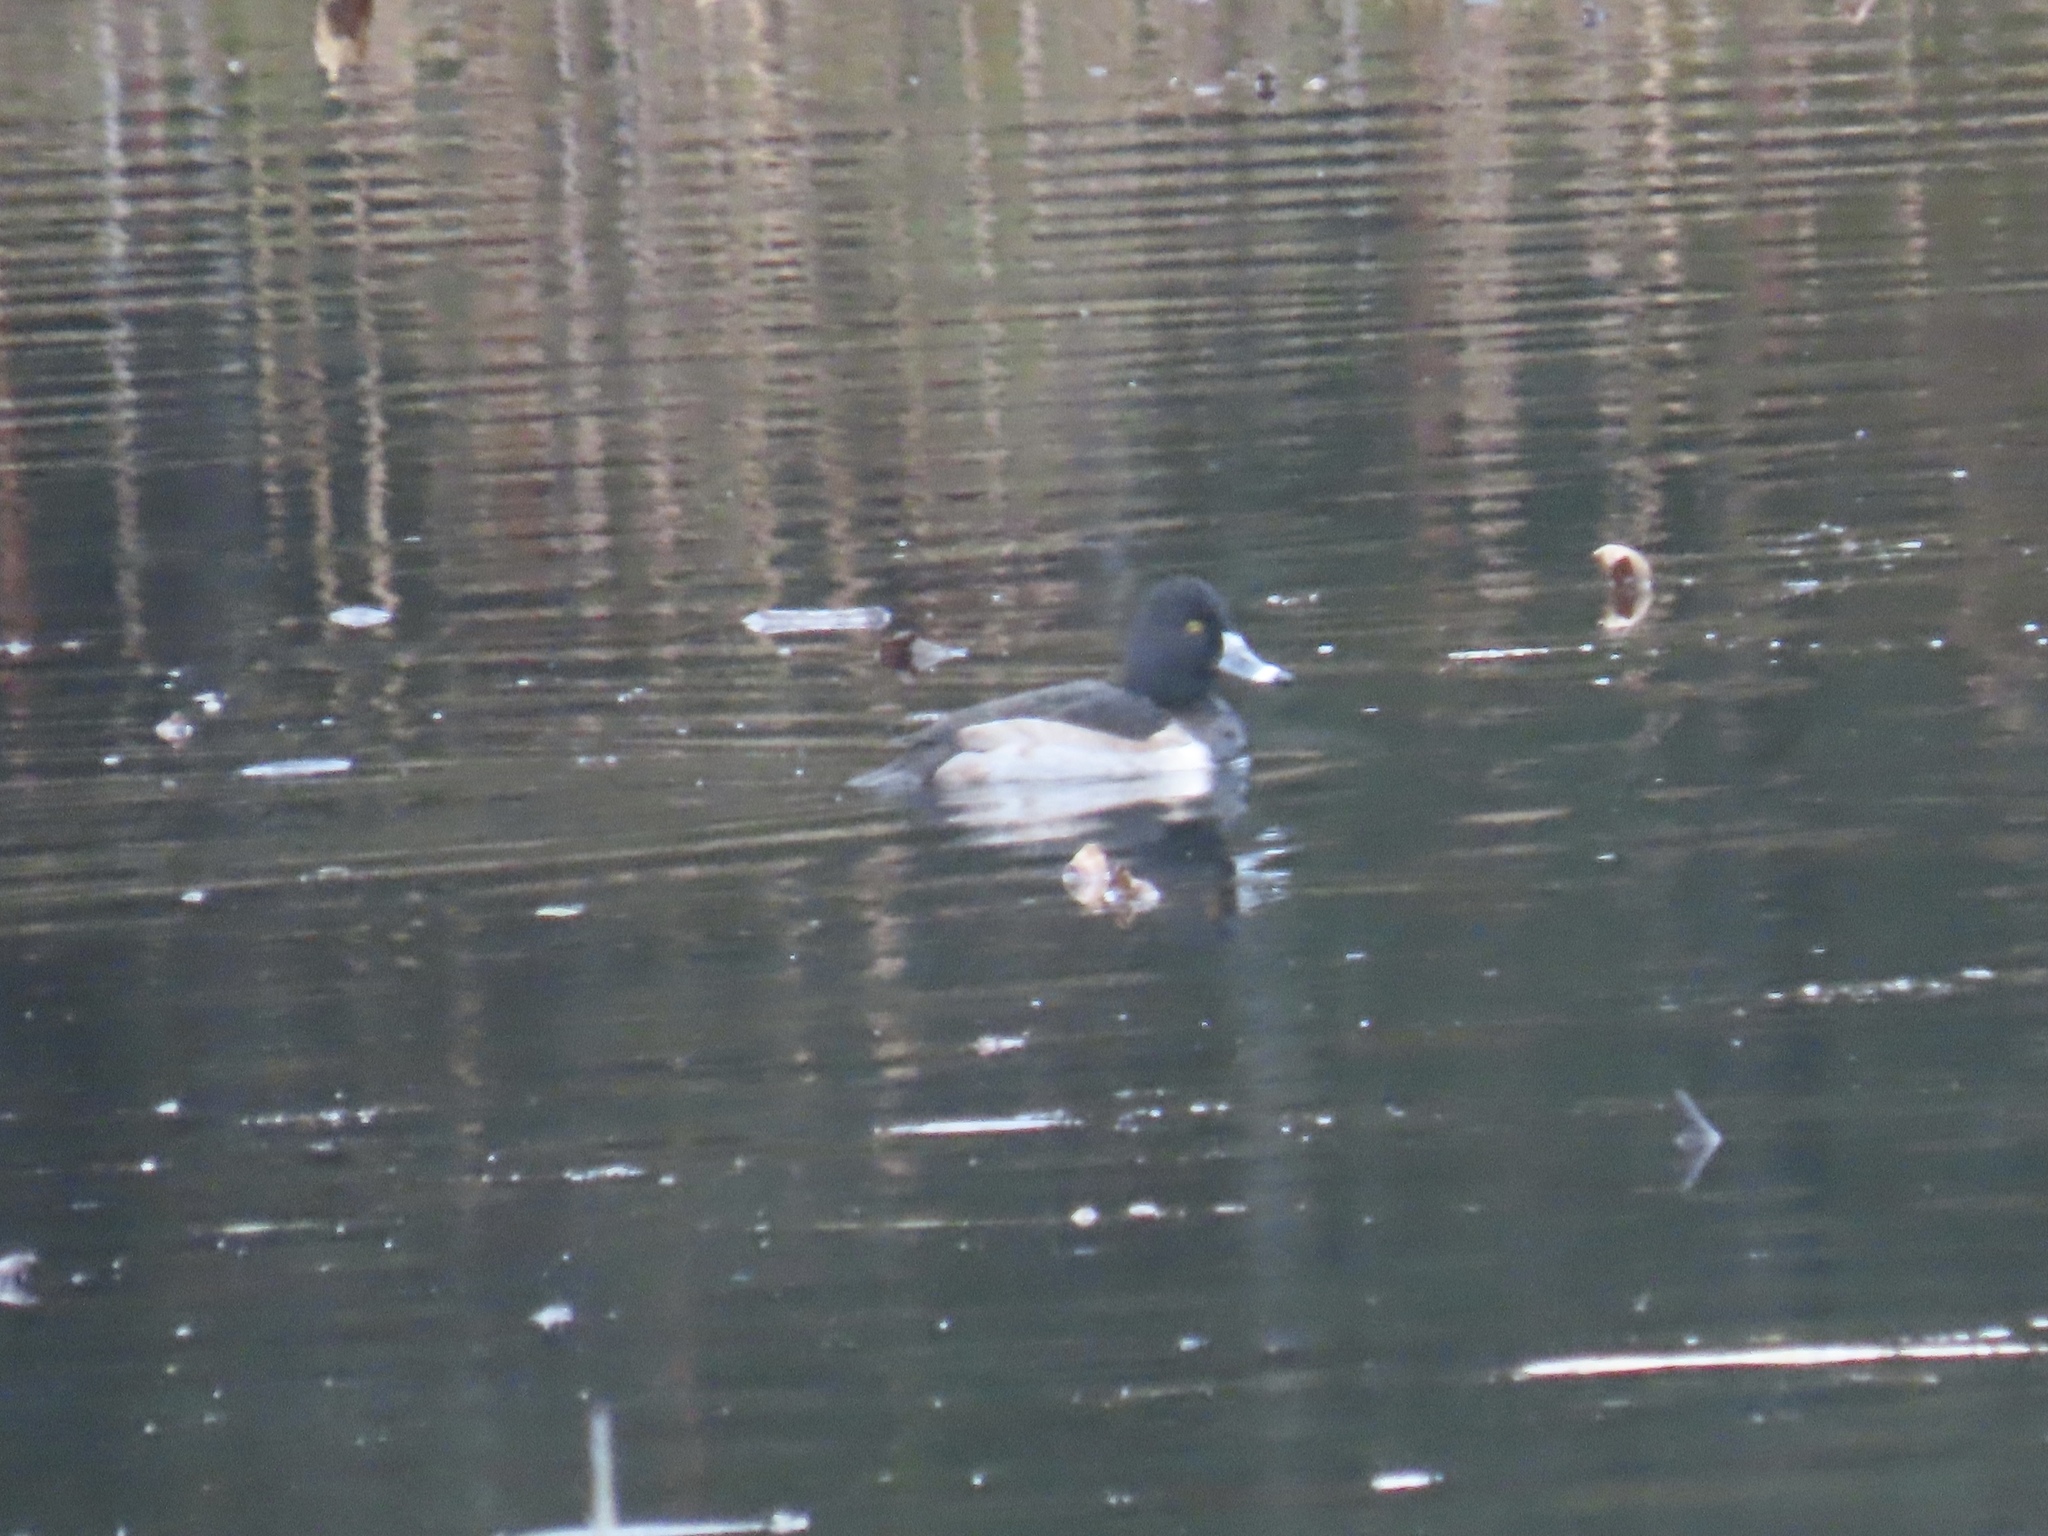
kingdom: Animalia
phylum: Chordata
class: Aves
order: Anseriformes
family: Anatidae
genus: Aythya
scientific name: Aythya collaris
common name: Ring-necked duck
